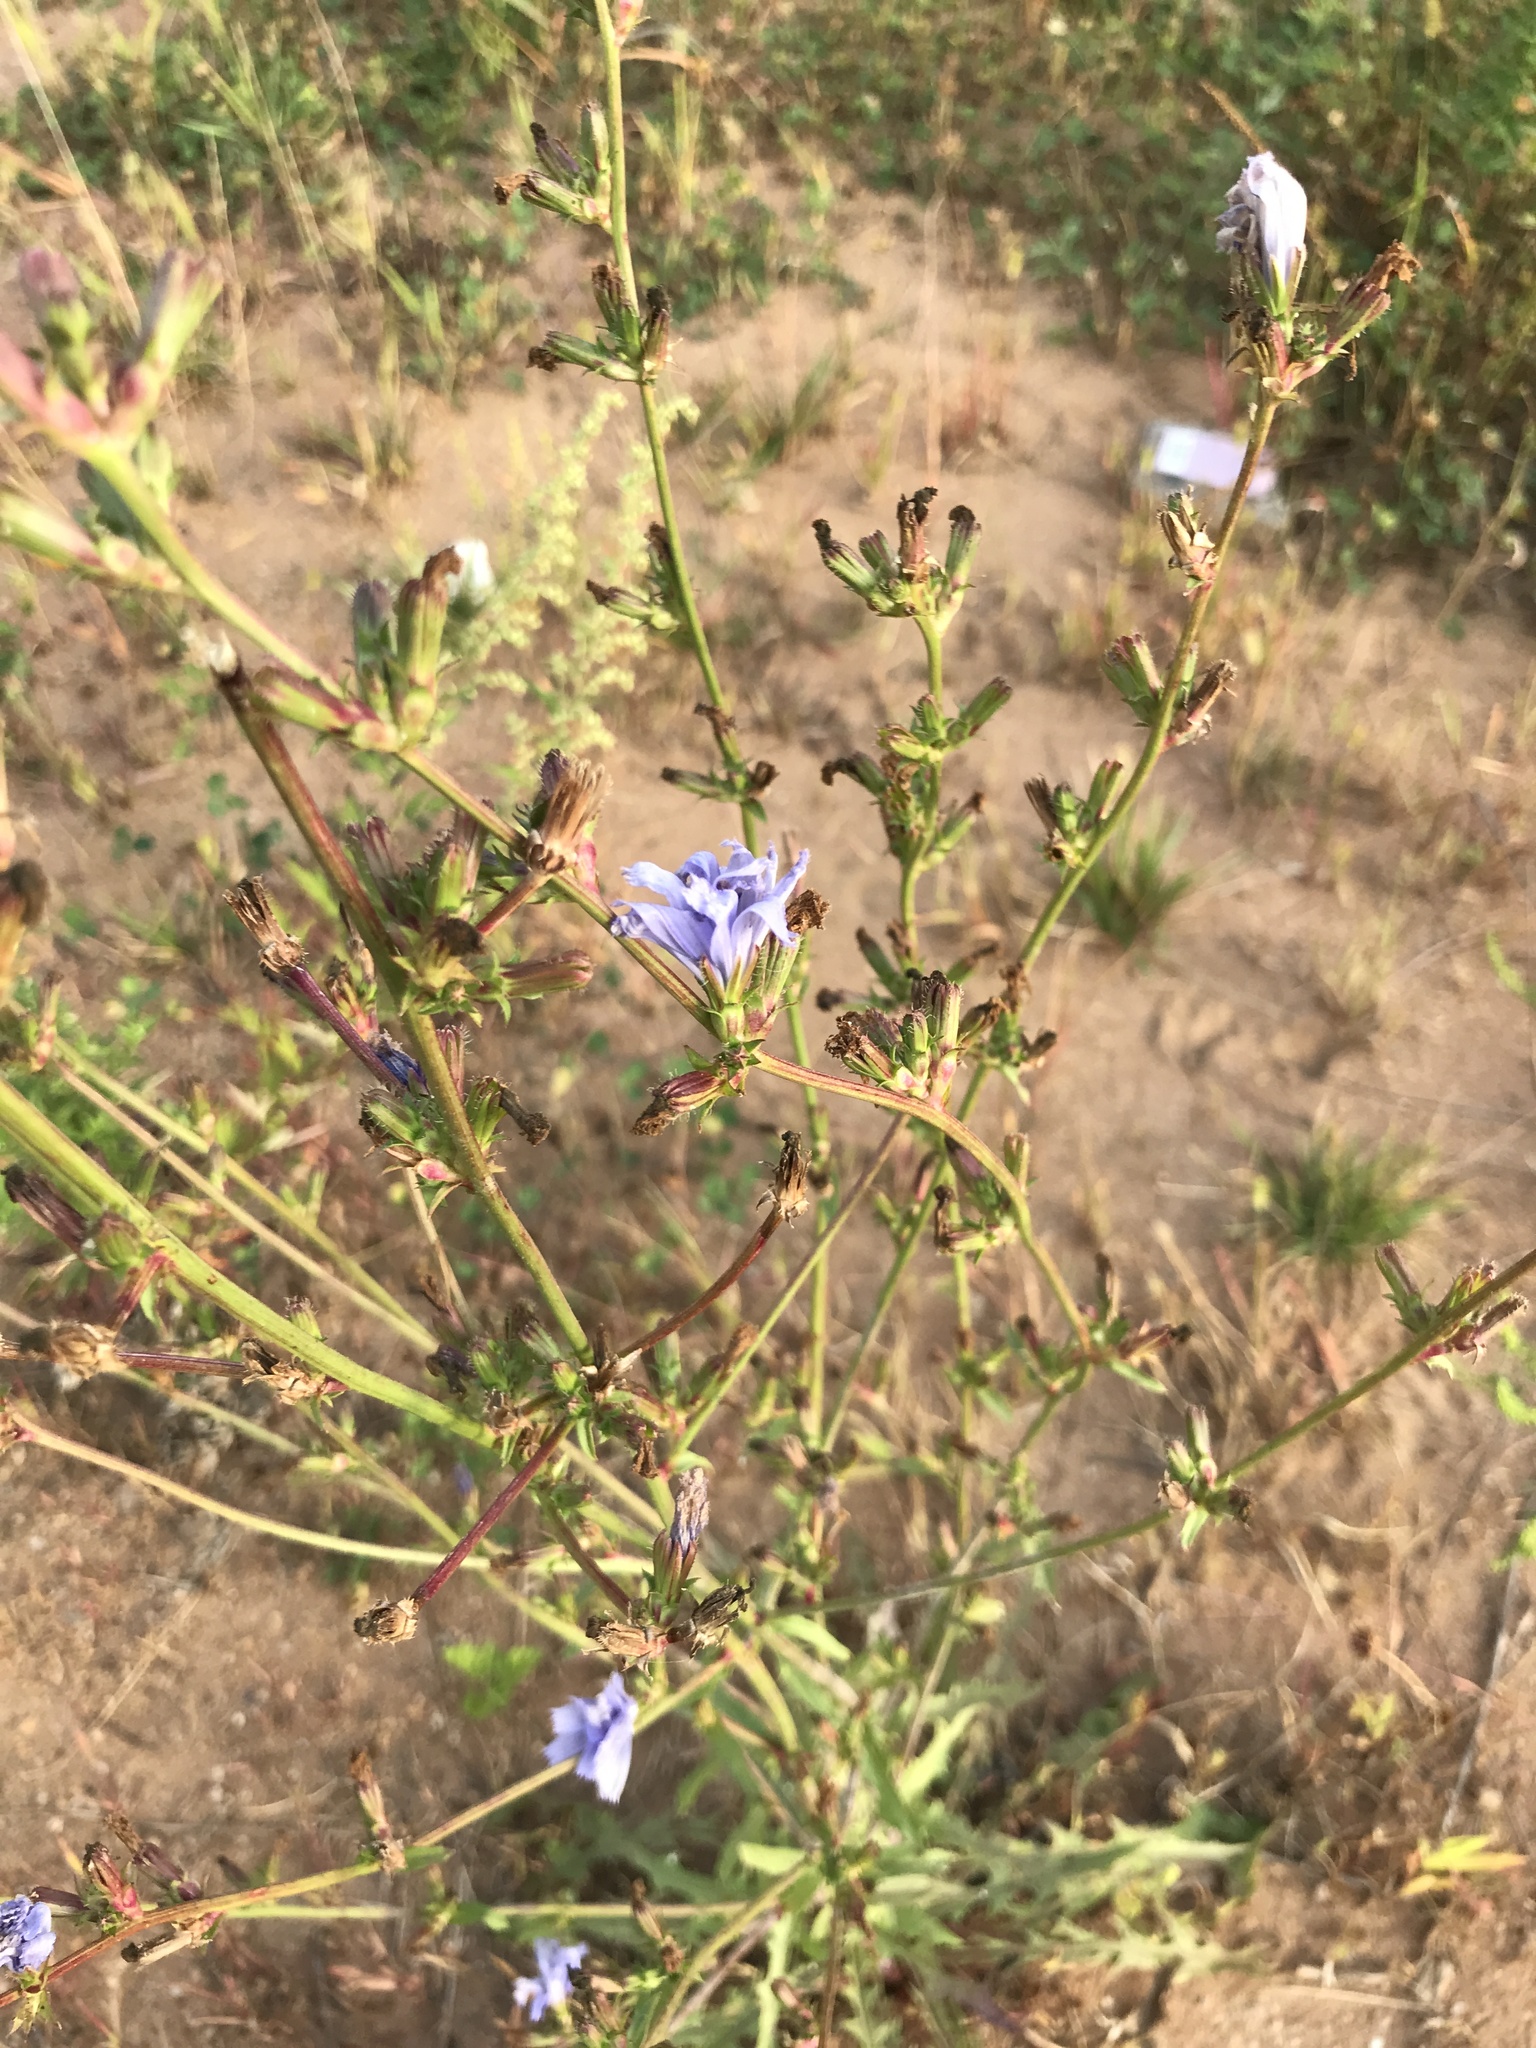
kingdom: Plantae
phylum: Tracheophyta
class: Magnoliopsida
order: Asterales
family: Asteraceae
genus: Cichorium
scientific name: Cichorium intybus
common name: Chicory
